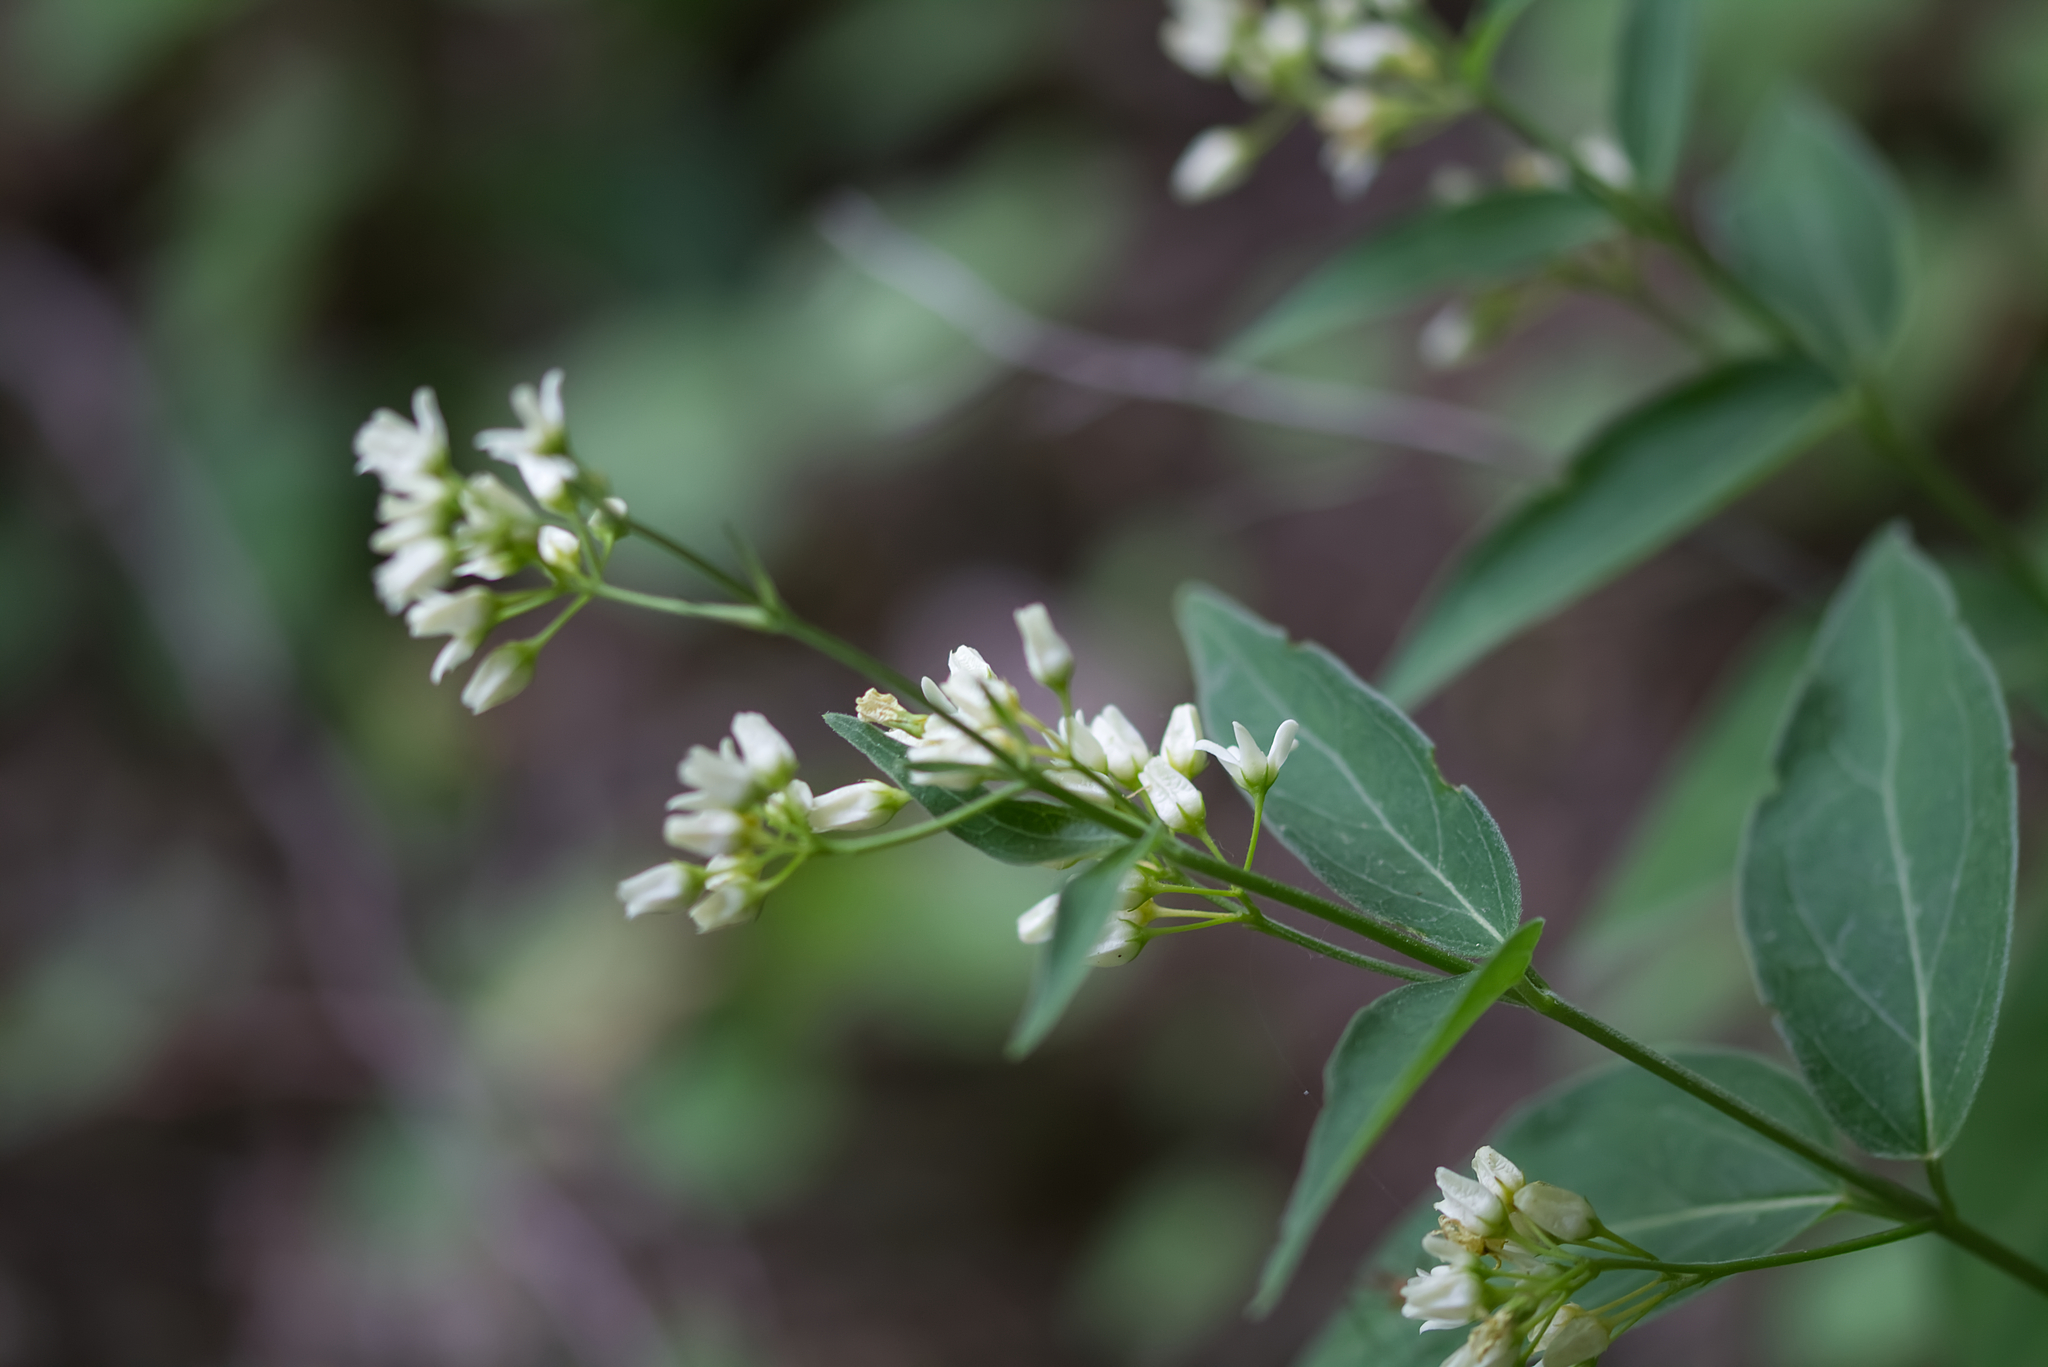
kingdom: Plantae
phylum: Tracheophyta
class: Magnoliopsida
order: Gentianales
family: Apocynaceae
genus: Vincetoxicum
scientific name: Vincetoxicum hirundinaria
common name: White swallowwort
